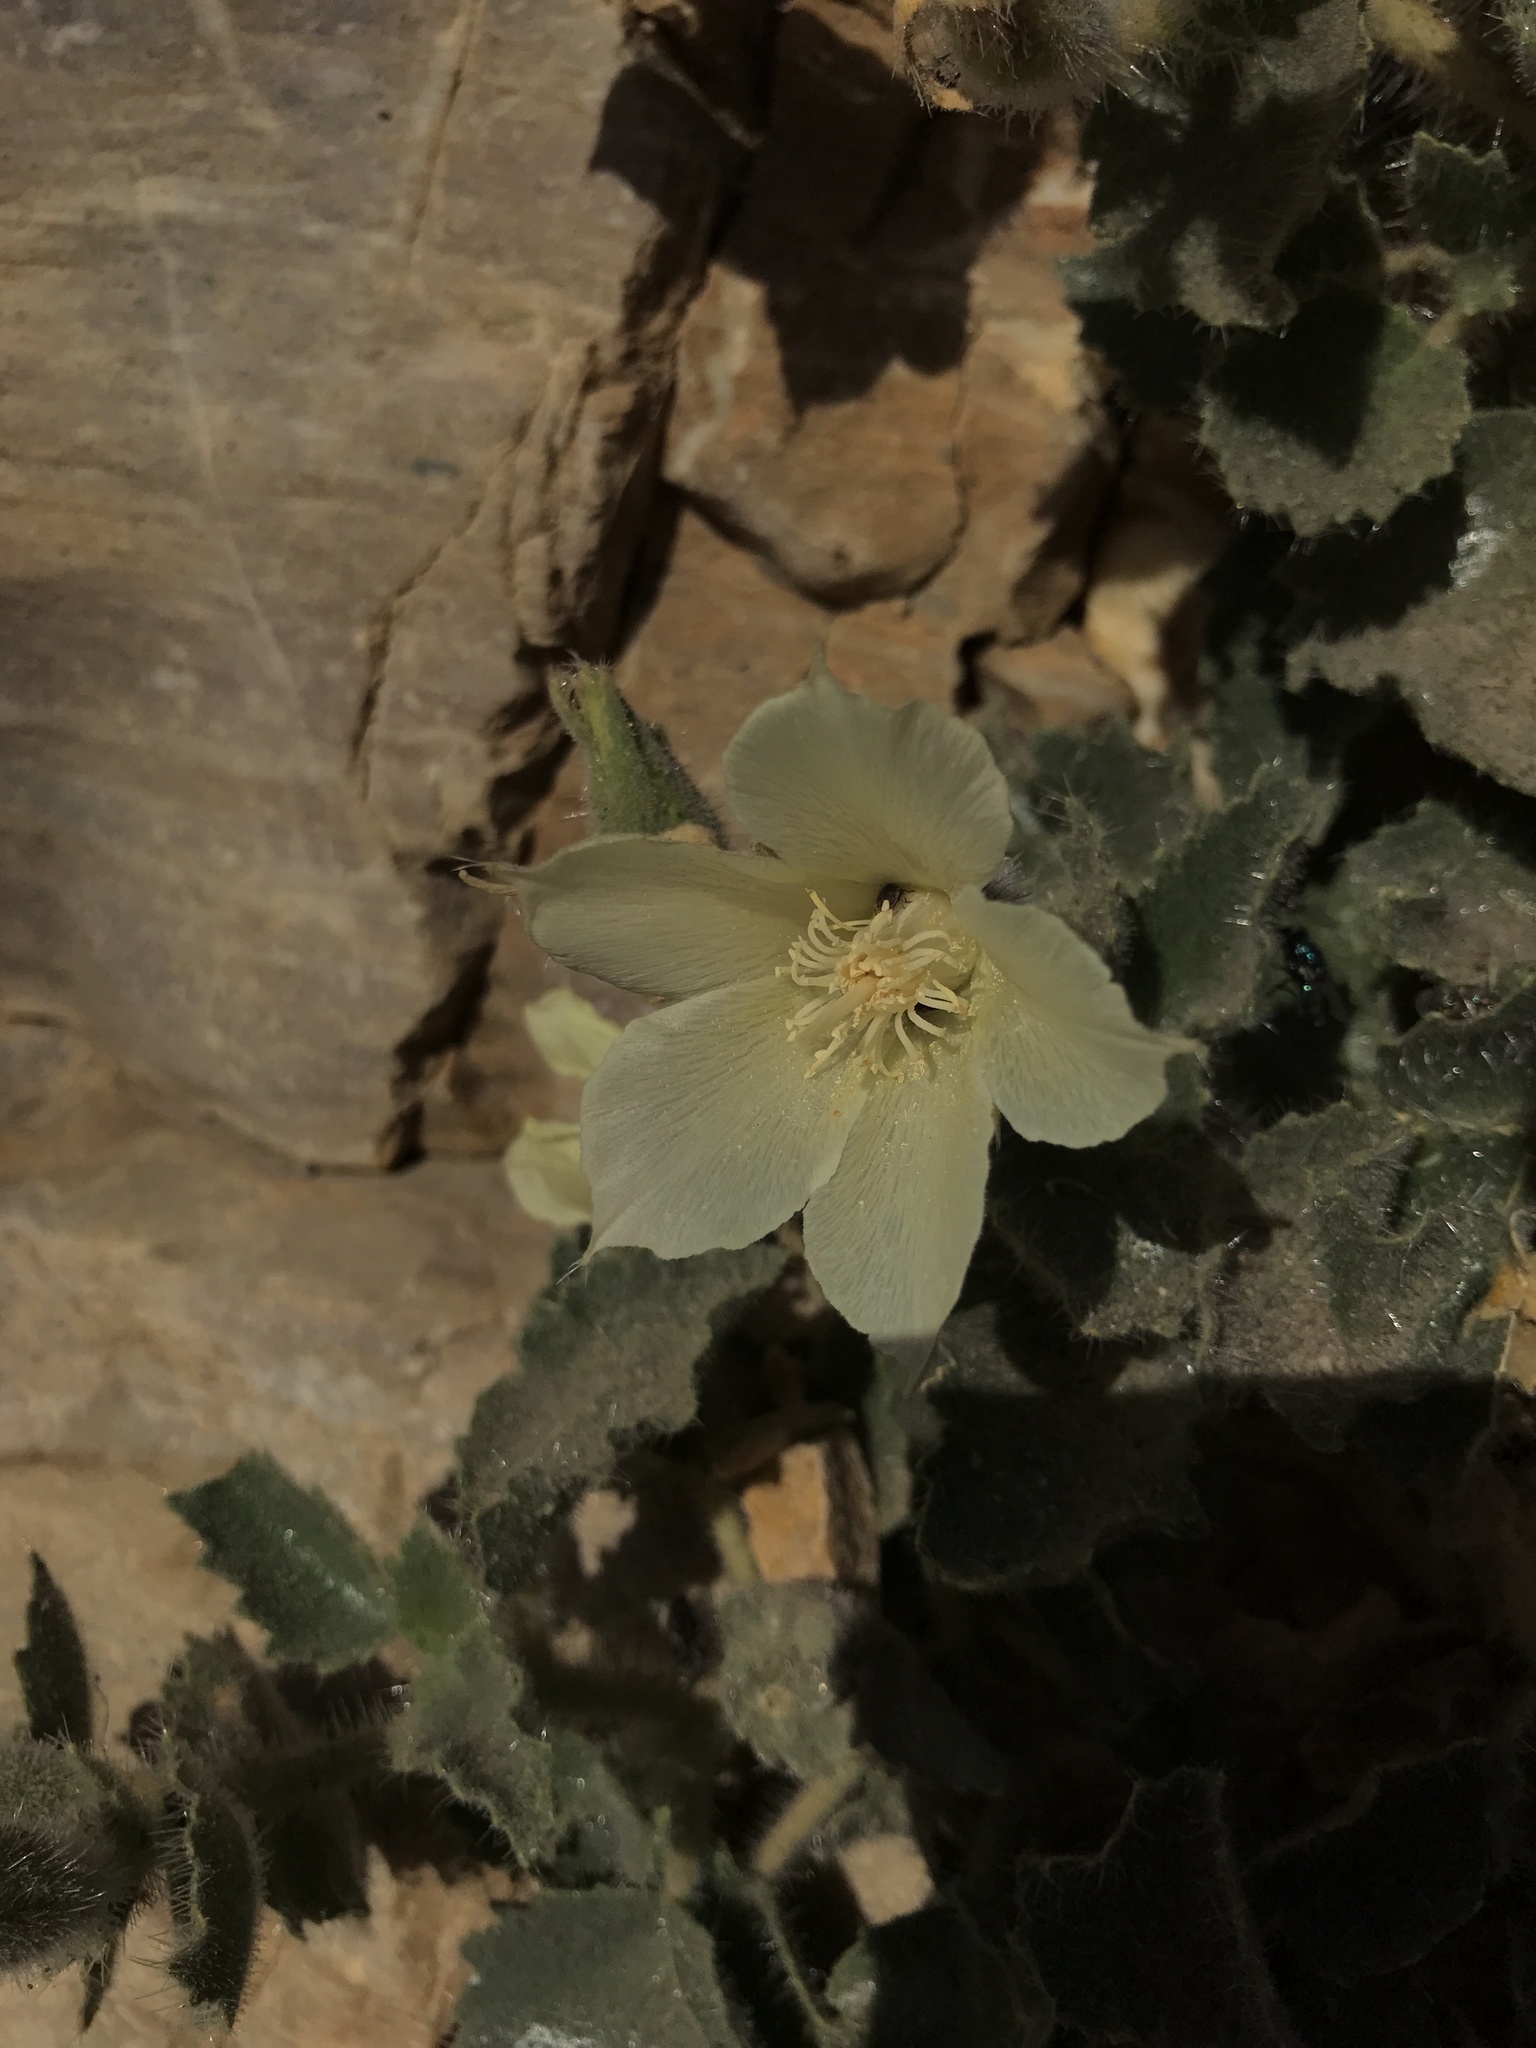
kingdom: Plantae
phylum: Tracheophyta
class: Magnoliopsida
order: Cornales
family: Loasaceae
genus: Eucnide
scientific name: Eucnide urens
